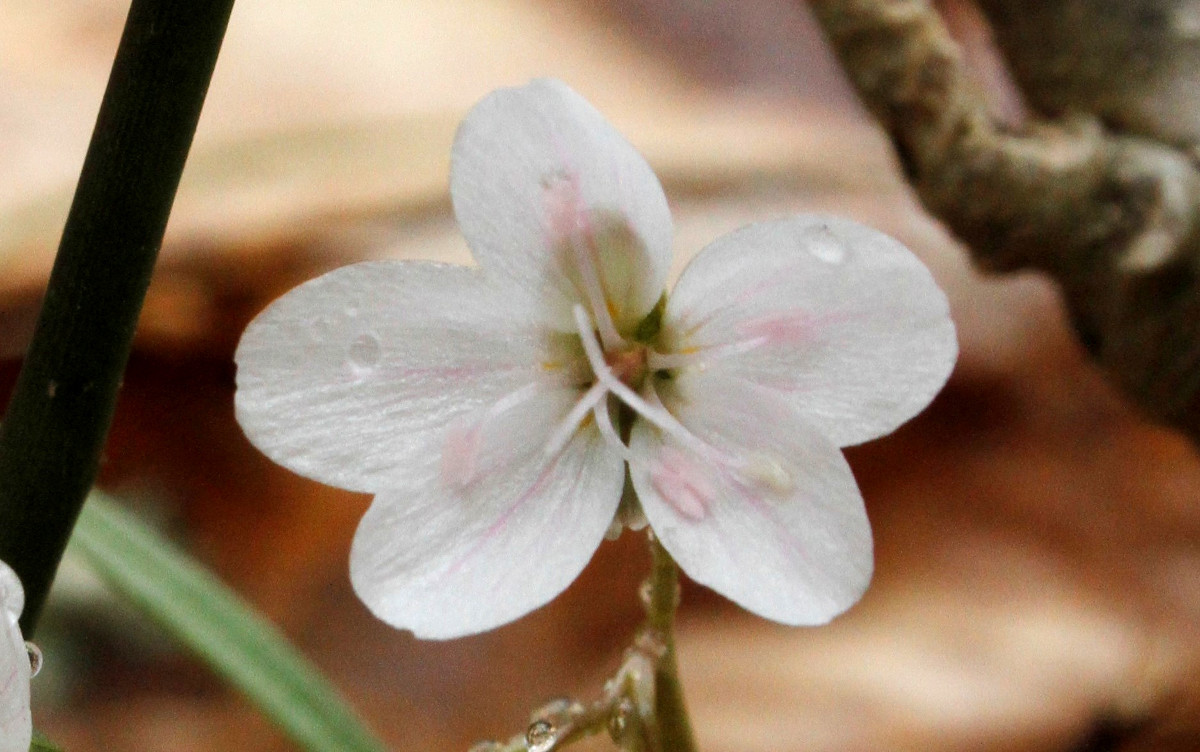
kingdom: Plantae
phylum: Tracheophyta
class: Magnoliopsida
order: Caryophyllales
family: Montiaceae
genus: Claytonia
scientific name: Claytonia virginica
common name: Virginia springbeauty
